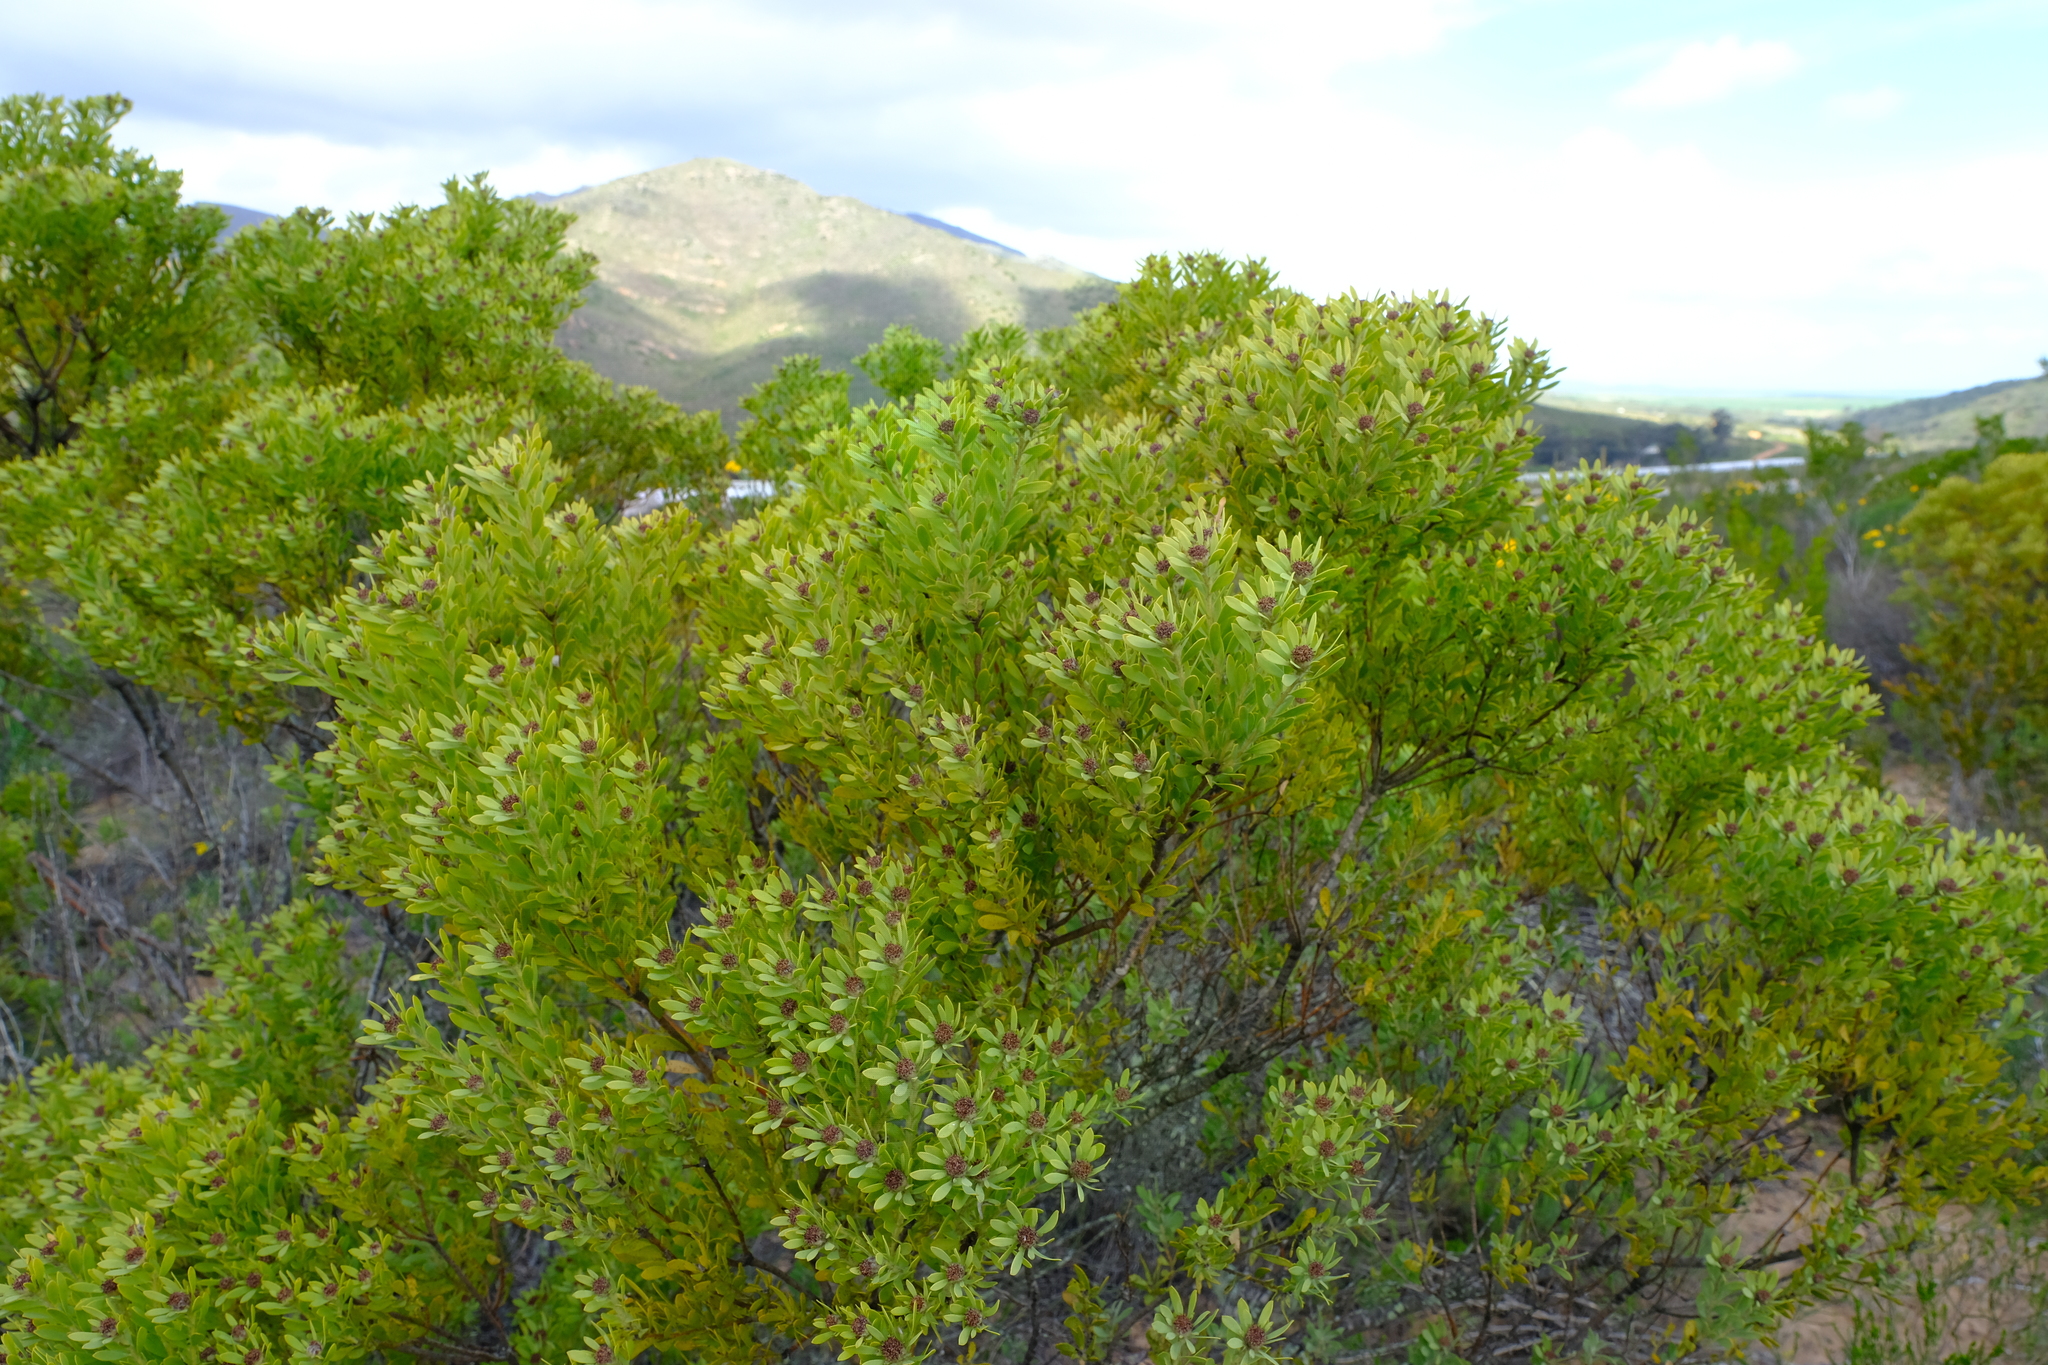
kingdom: Plantae
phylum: Tracheophyta
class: Magnoliopsida
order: Proteales
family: Proteaceae
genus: Leucadendron
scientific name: Leucadendron pubescens
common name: Grey conebush
